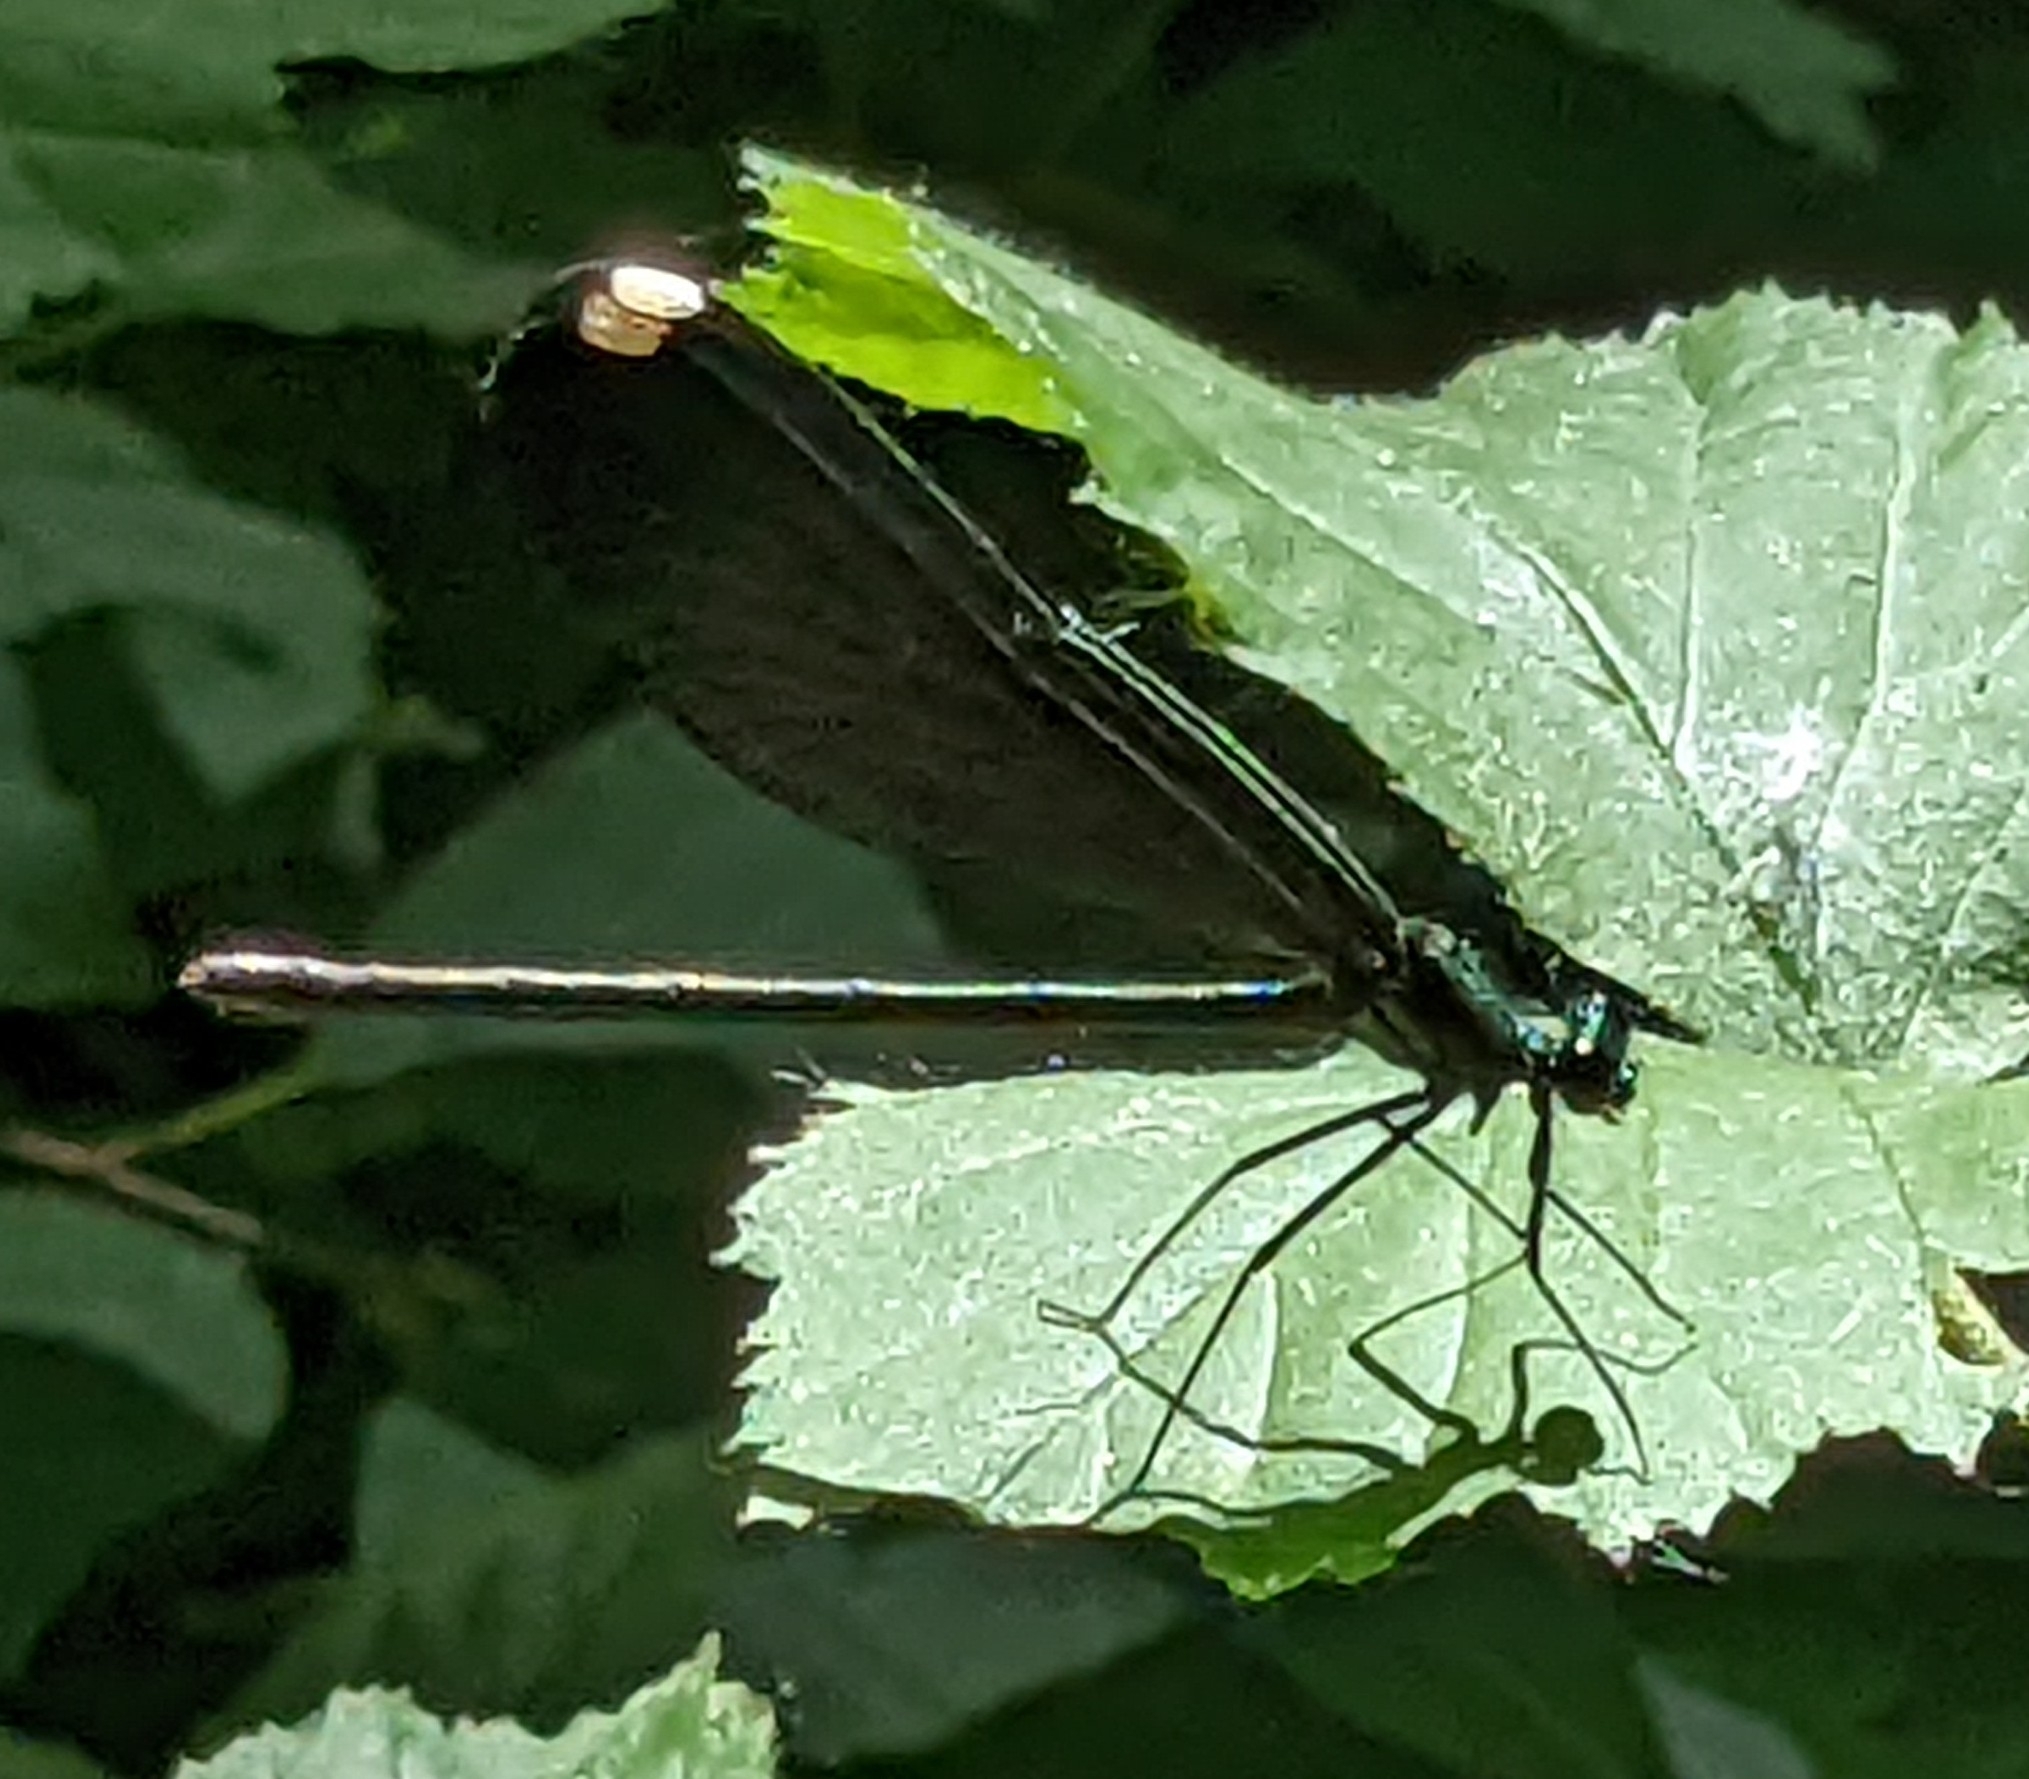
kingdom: Animalia
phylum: Arthropoda
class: Insecta
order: Odonata
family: Calopterygidae
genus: Calopteryx
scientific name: Calopteryx maculata
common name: Ebony jewelwing
